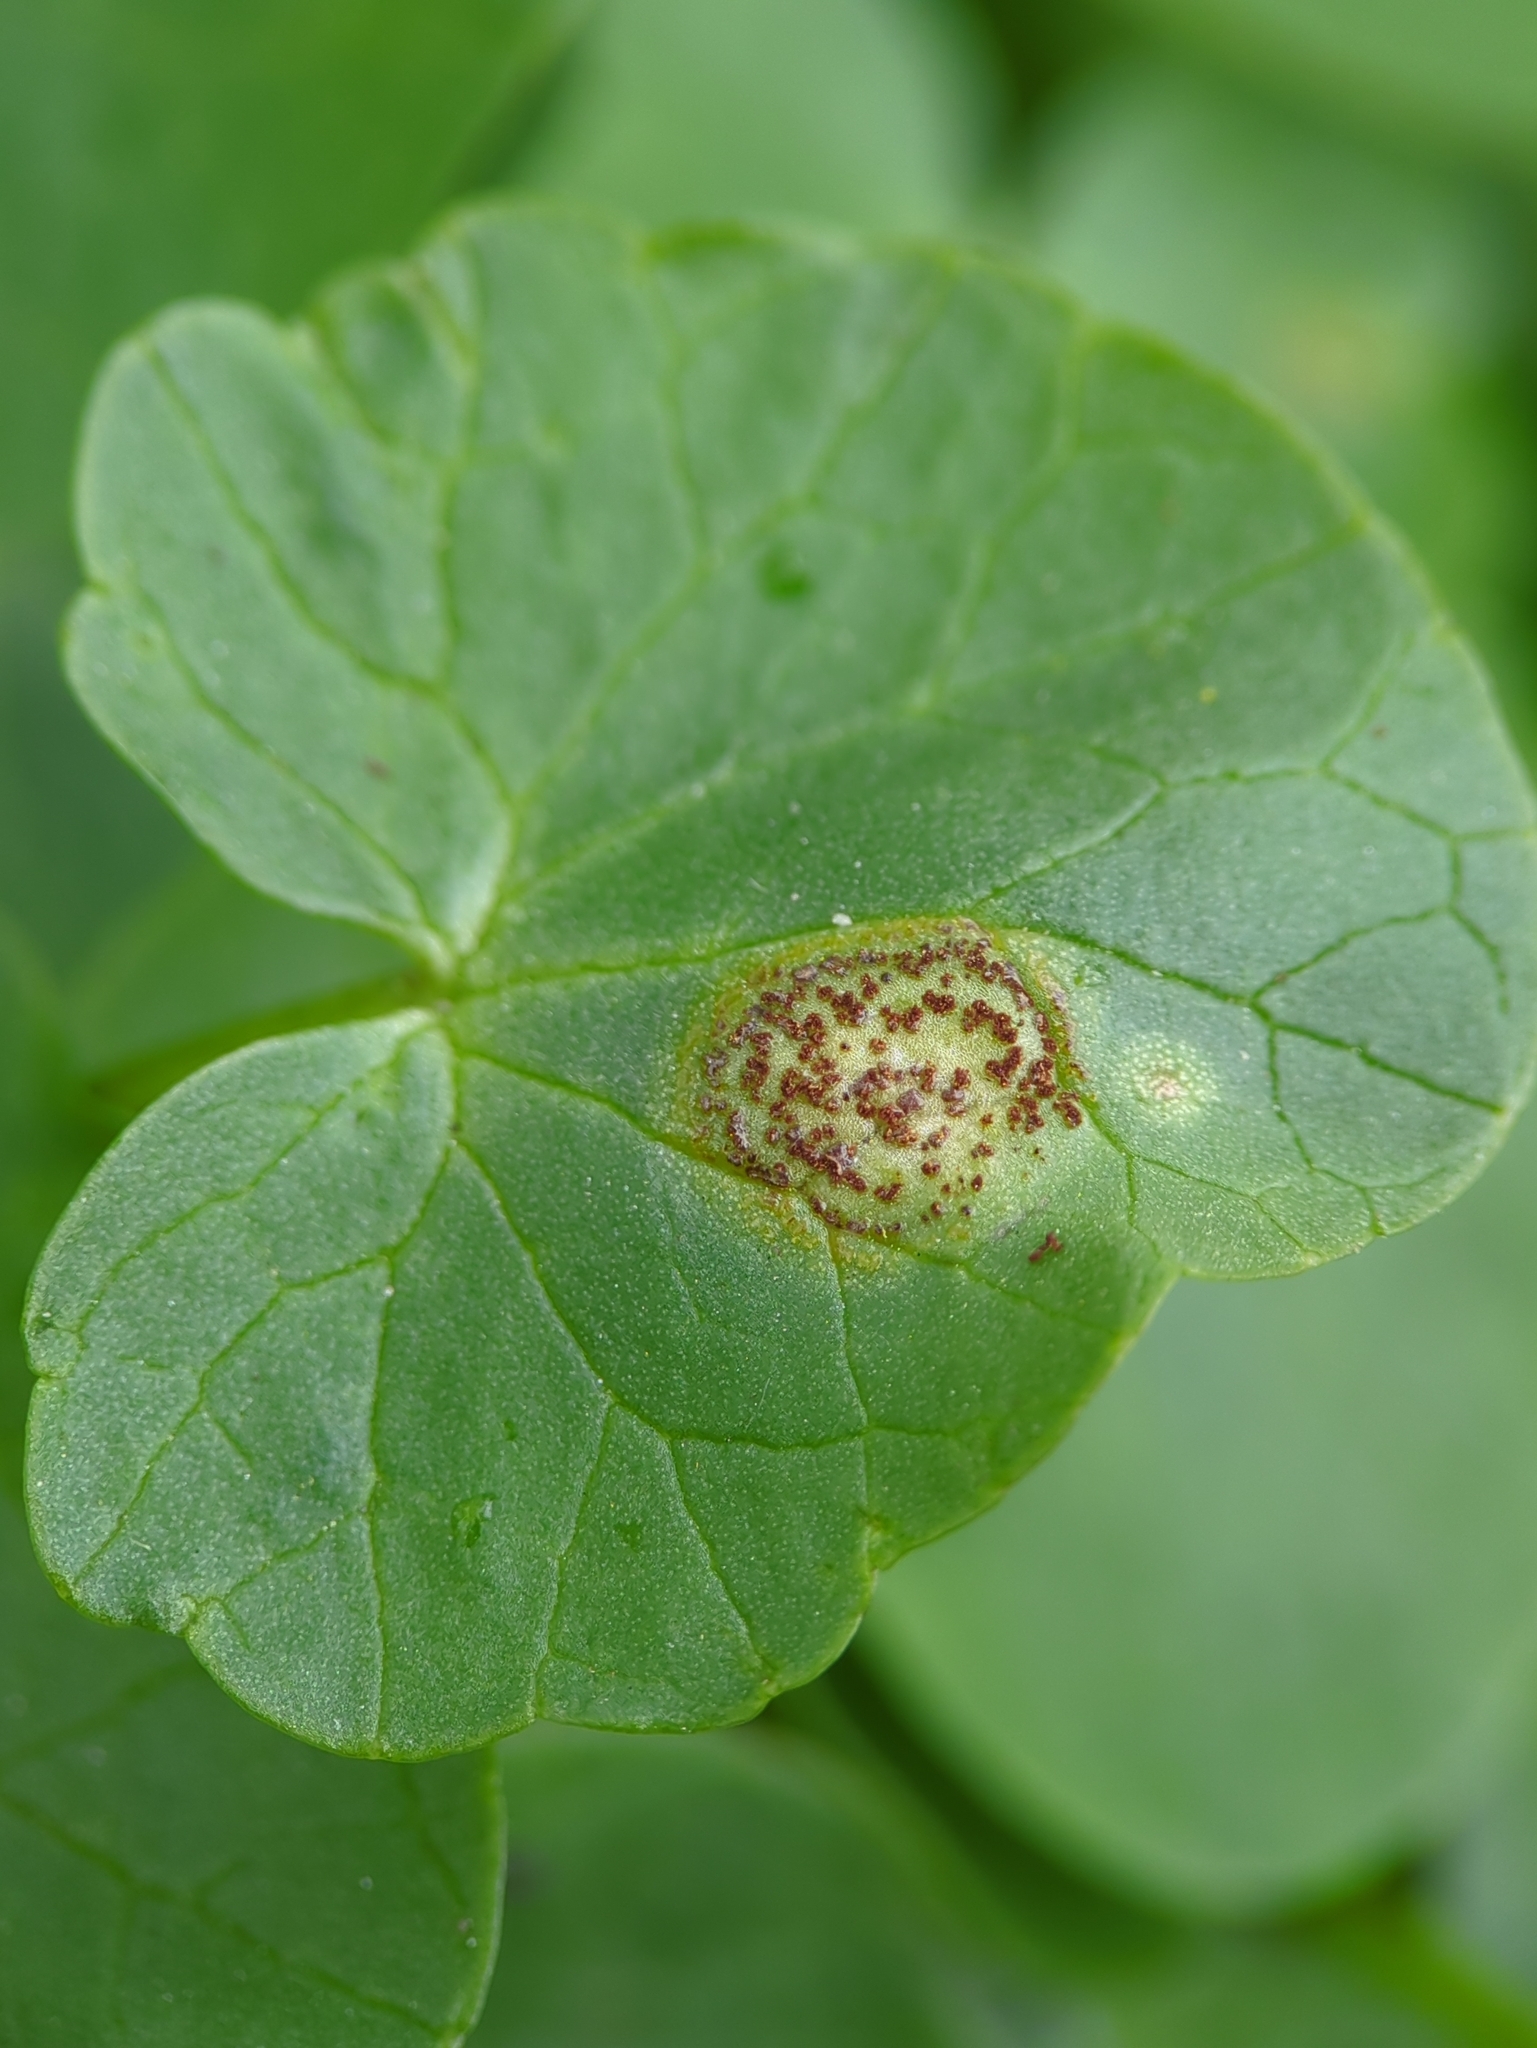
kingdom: Fungi
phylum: Basidiomycota
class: Pucciniomycetes
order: Pucciniales
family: Pucciniaceae
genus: Uromyces
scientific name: Uromyces ficariae
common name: Bitter chocolate rust
